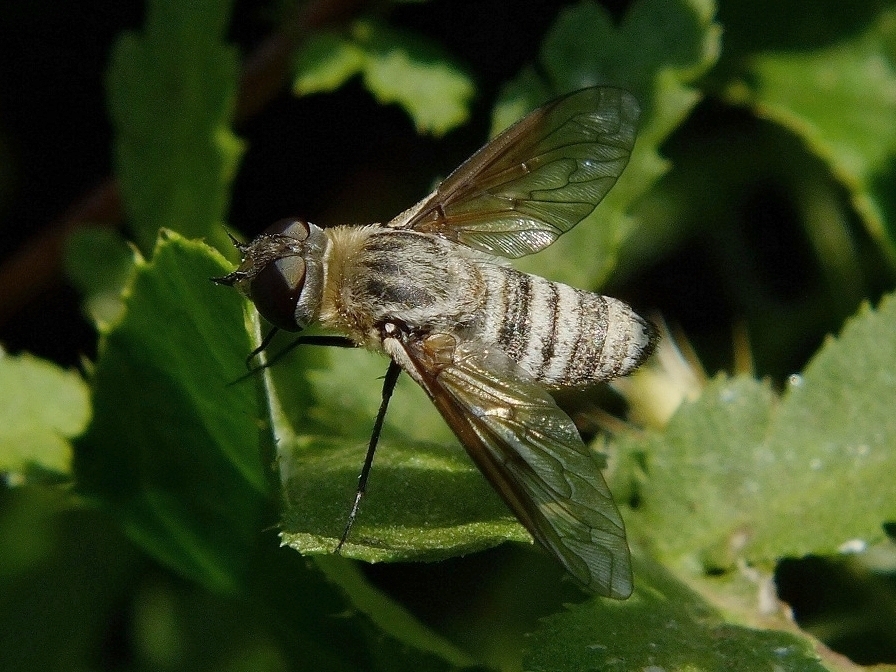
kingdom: Animalia
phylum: Arthropoda
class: Insecta
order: Diptera
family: Bombyliidae
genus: Defilippia
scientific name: Defilippia minos
